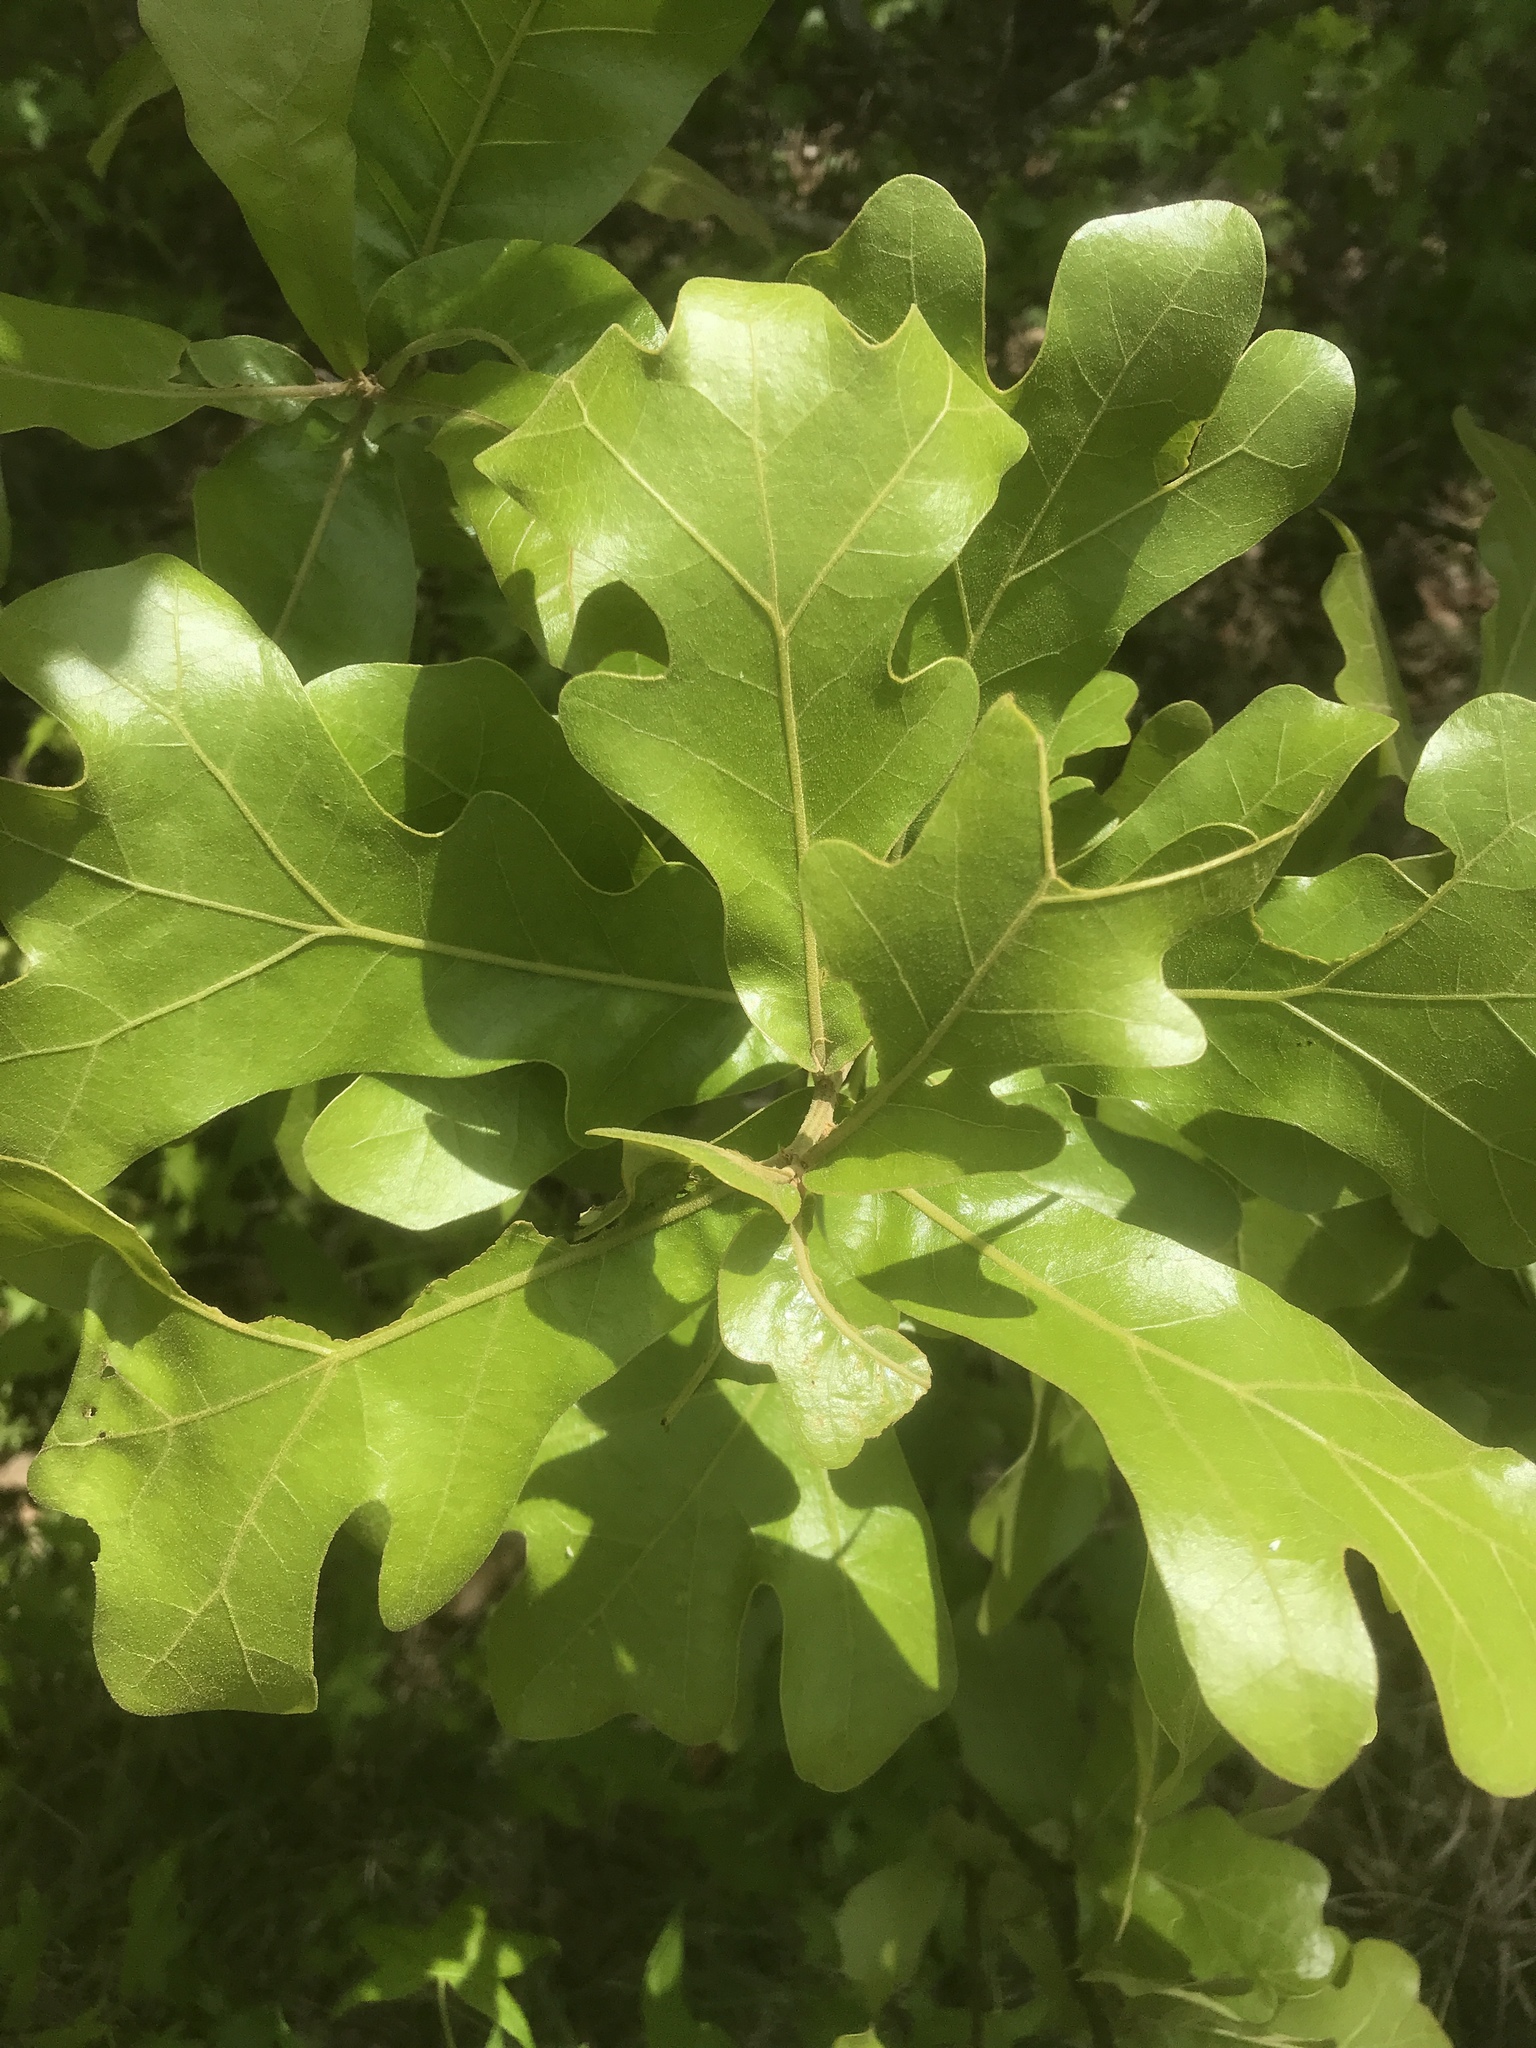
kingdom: Plantae
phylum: Tracheophyta
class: Magnoliopsida
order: Fagales
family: Fagaceae
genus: Quercus
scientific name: Quercus stellata
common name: Post oak
